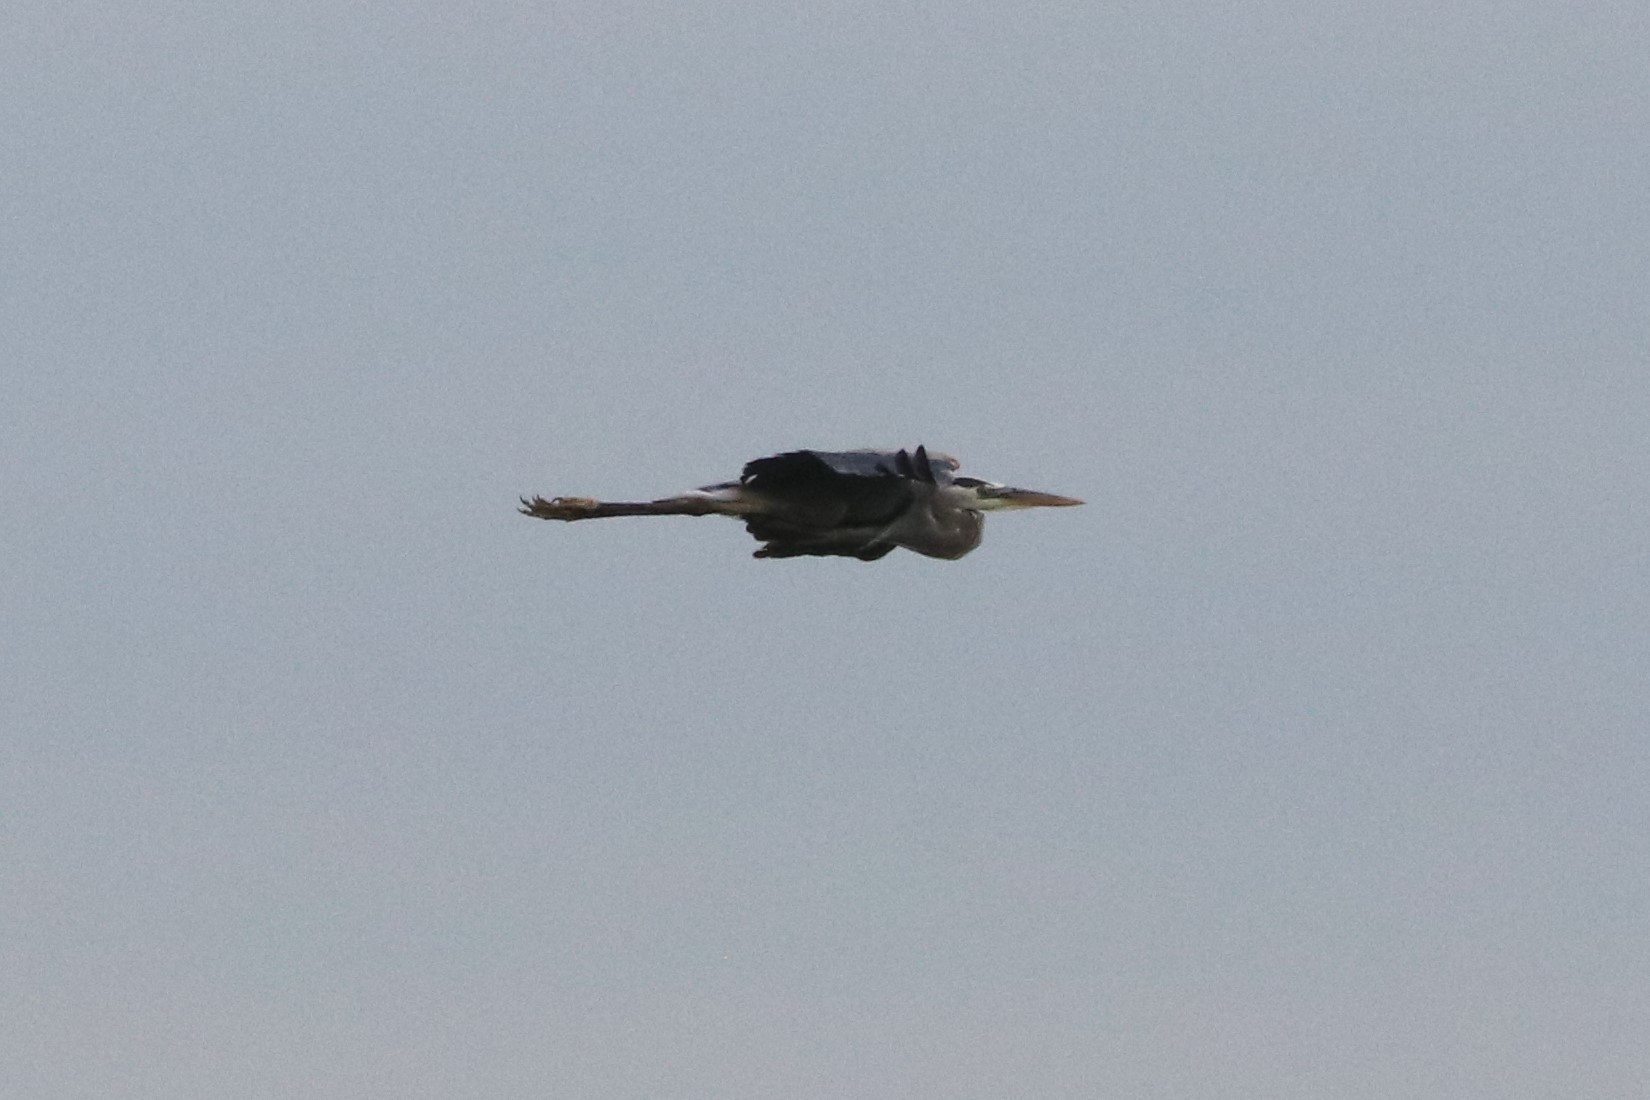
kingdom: Animalia
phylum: Chordata
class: Aves
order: Pelecaniformes
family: Ardeidae
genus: Ardea
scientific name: Ardea herodias
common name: Great blue heron
